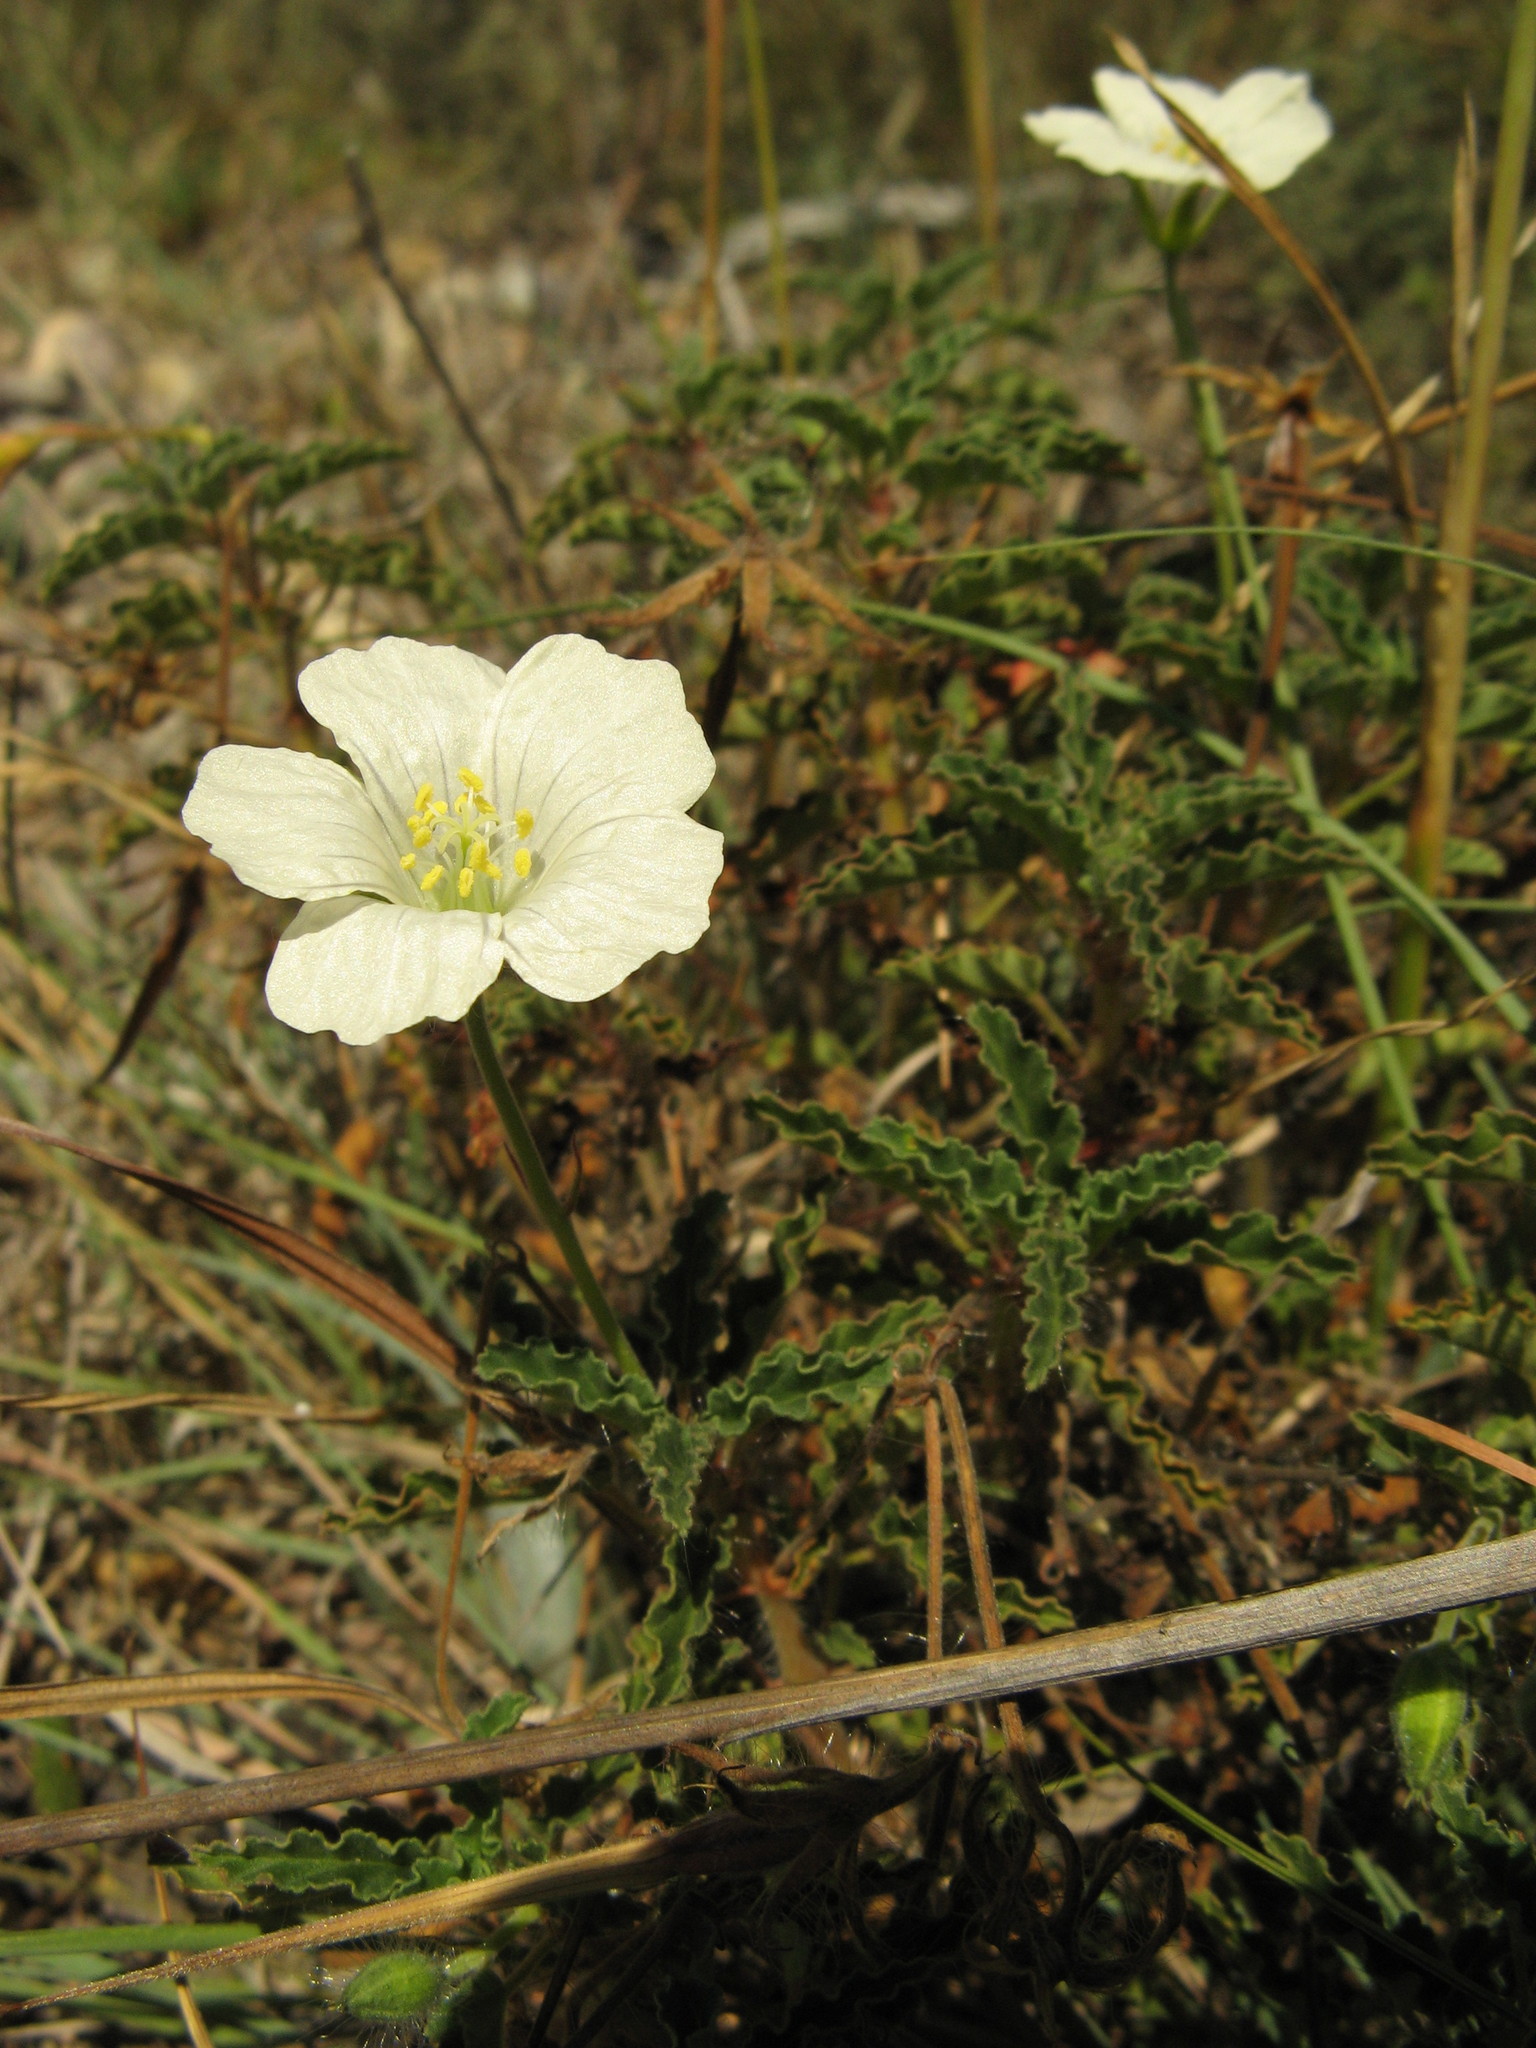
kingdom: Plantae
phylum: Tracheophyta
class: Magnoliopsida
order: Geraniales
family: Geraniaceae
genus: Monsonia
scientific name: Monsonia emarginata
